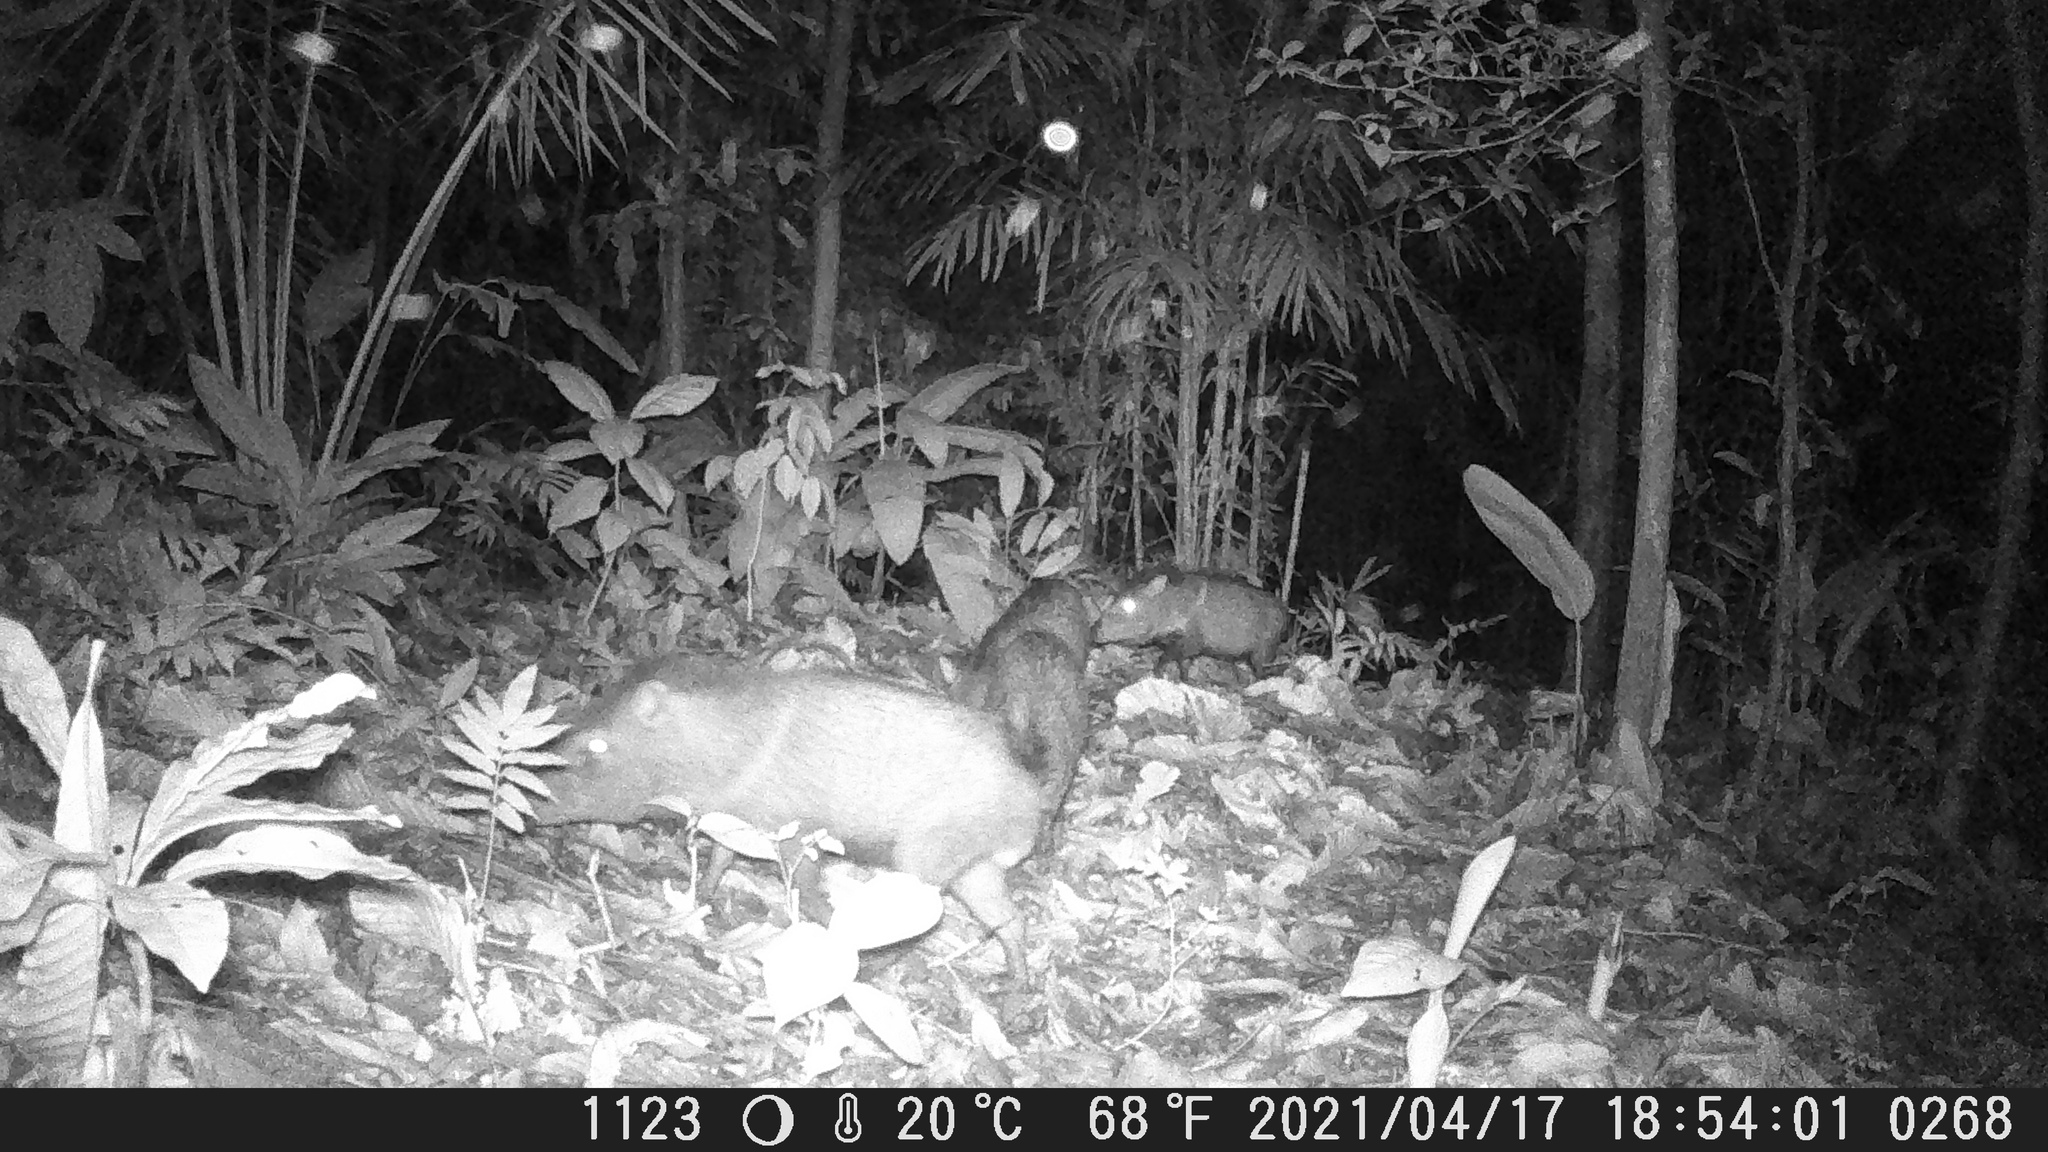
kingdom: Animalia
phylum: Chordata
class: Mammalia
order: Artiodactyla
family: Tayassuidae
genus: Pecari
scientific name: Pecari tajacu
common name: Collared peccary
